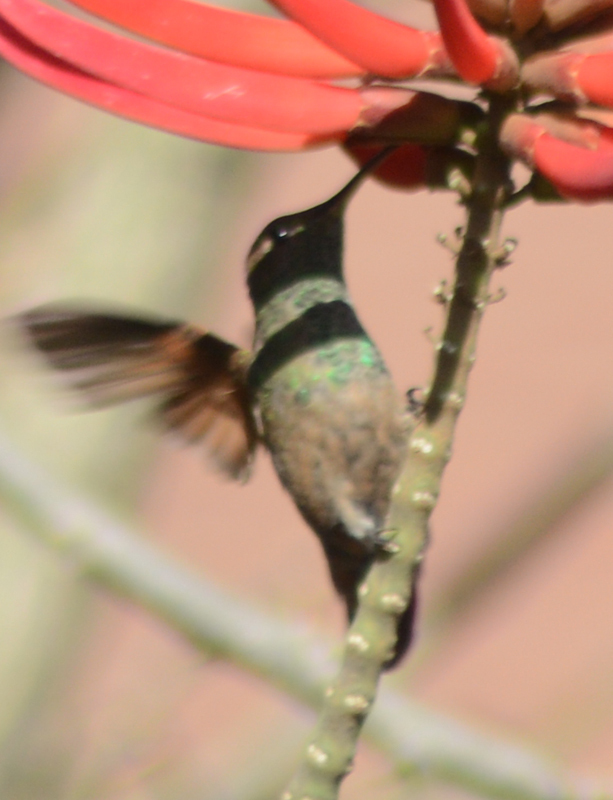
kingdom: Animalia
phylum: Chordata
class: Aves
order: Apodiformes
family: Trochilidae
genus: Saucerottia
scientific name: Saucerottia beryllina
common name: Berylline hummingbird
